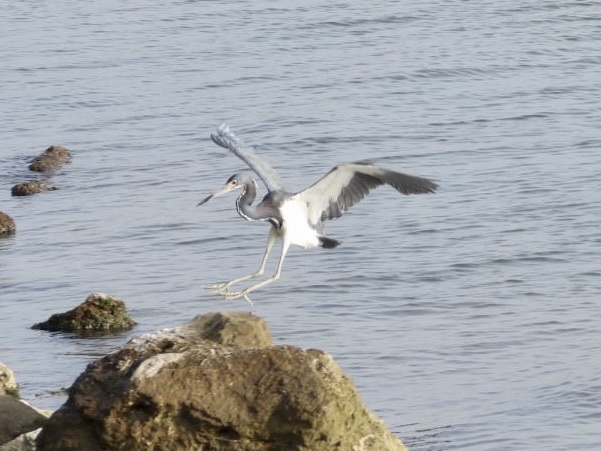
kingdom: Animalia
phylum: Chordata
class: Aves
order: Pelecaniformes
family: Ardeidae
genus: Egretta
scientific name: Egretta tricolor
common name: Tricolored heron
